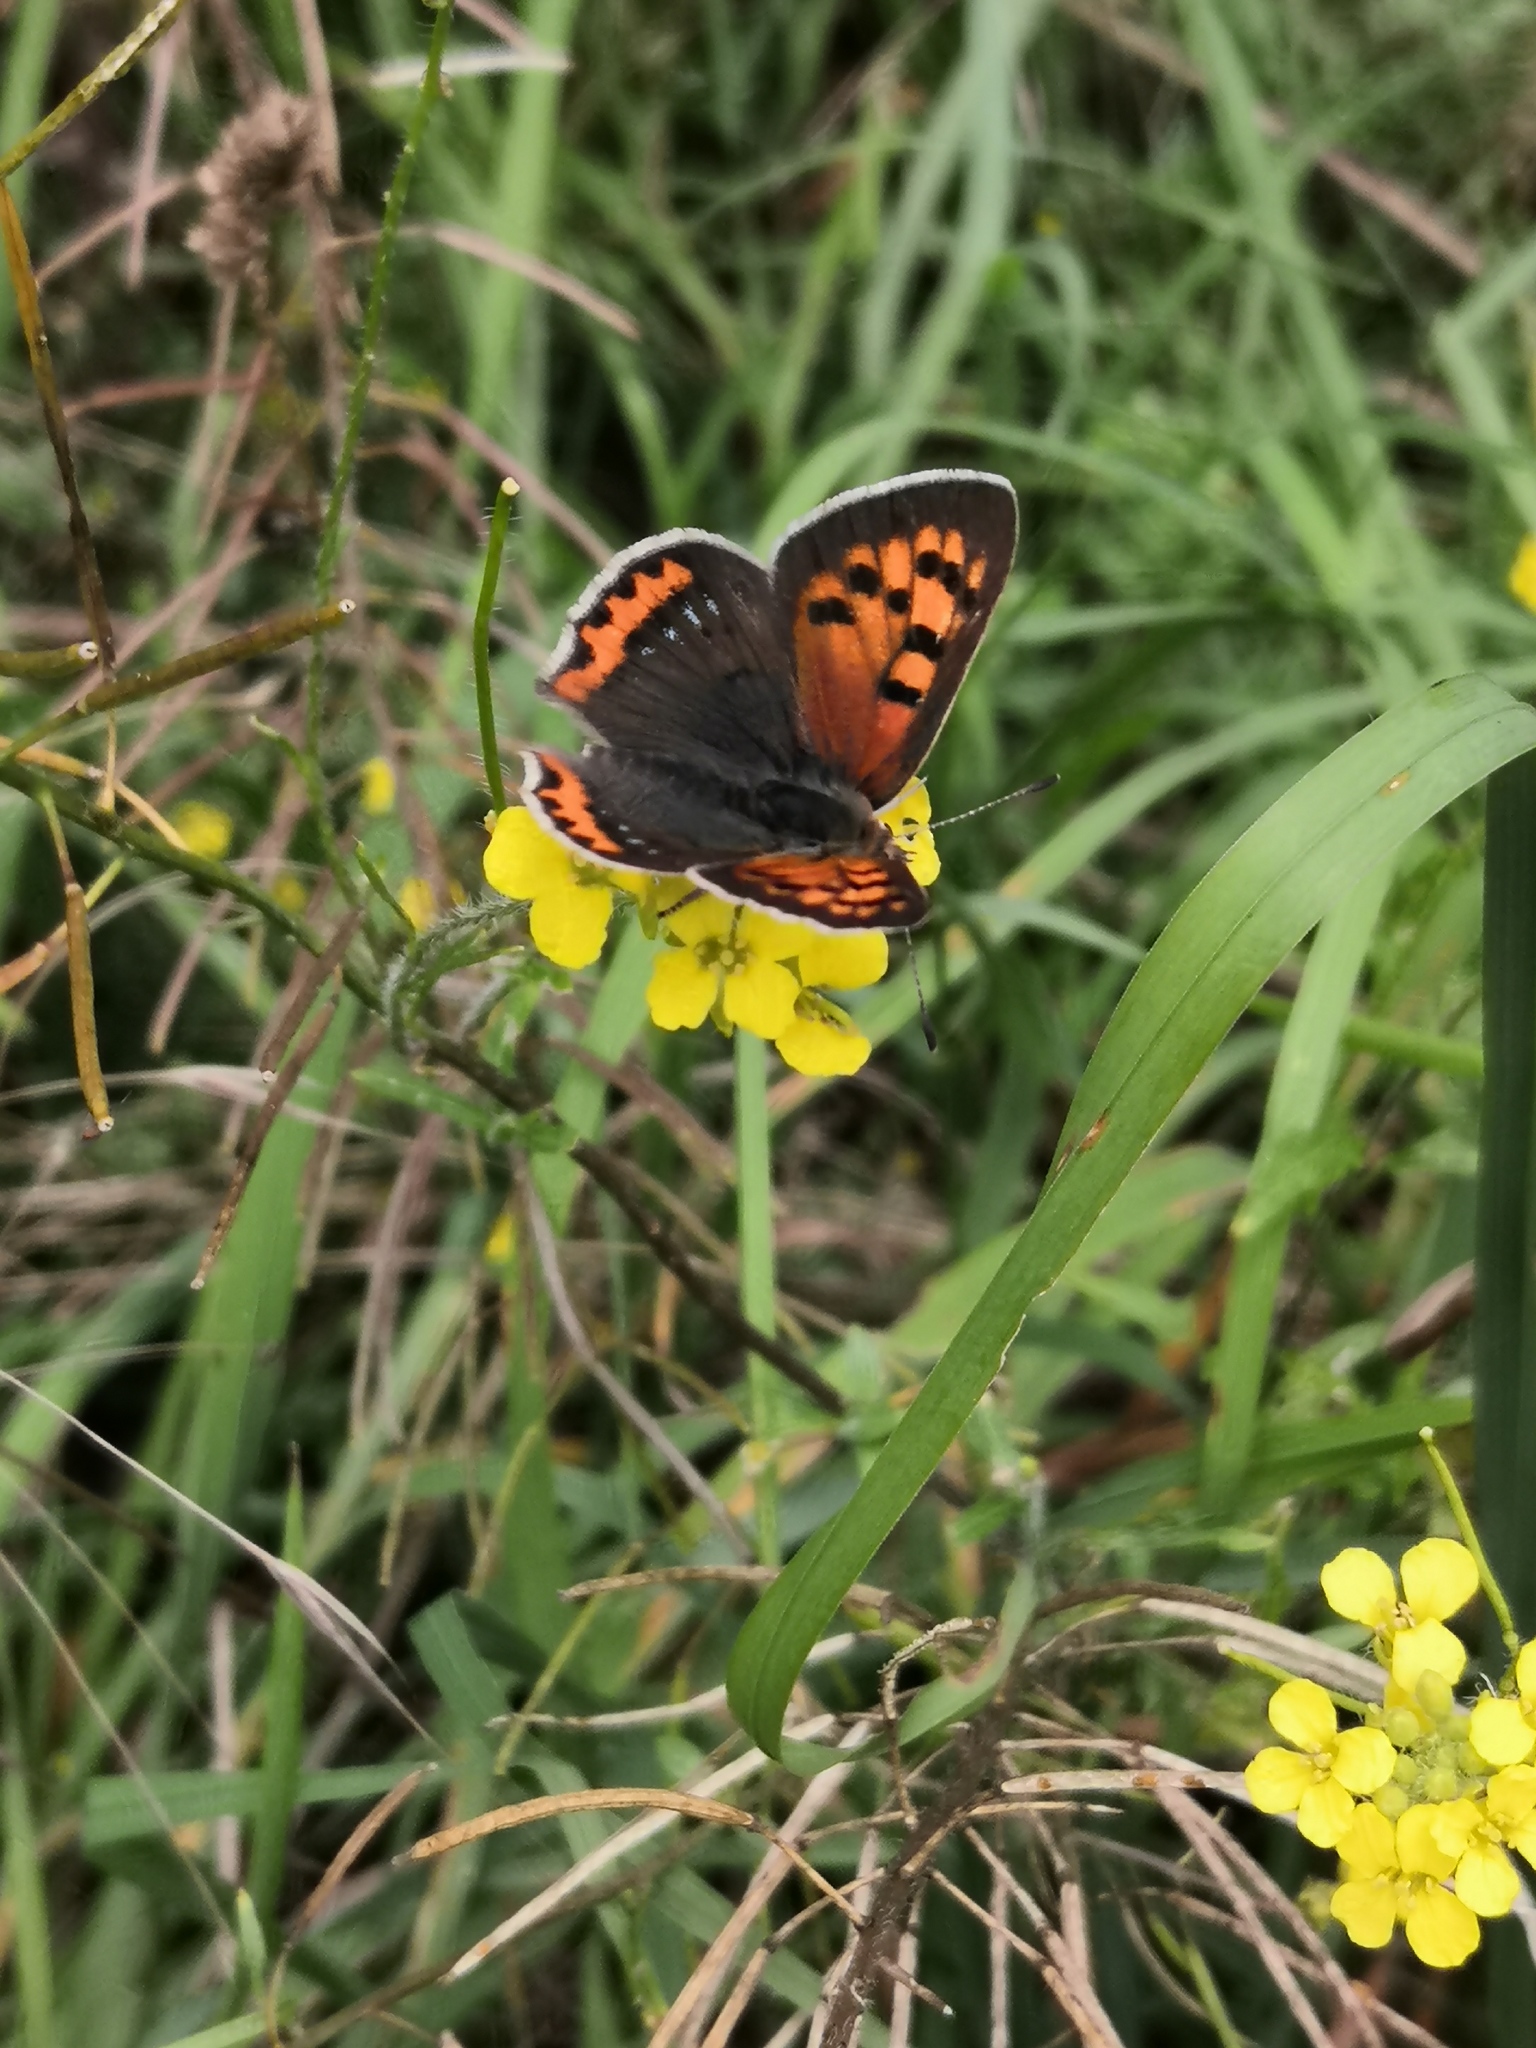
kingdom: Animalia
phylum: Arthropoda
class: Insecta
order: Lepidoptera
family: Lycaenidae
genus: Lycaena
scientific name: Lycaena phlaeas
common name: Small copper
